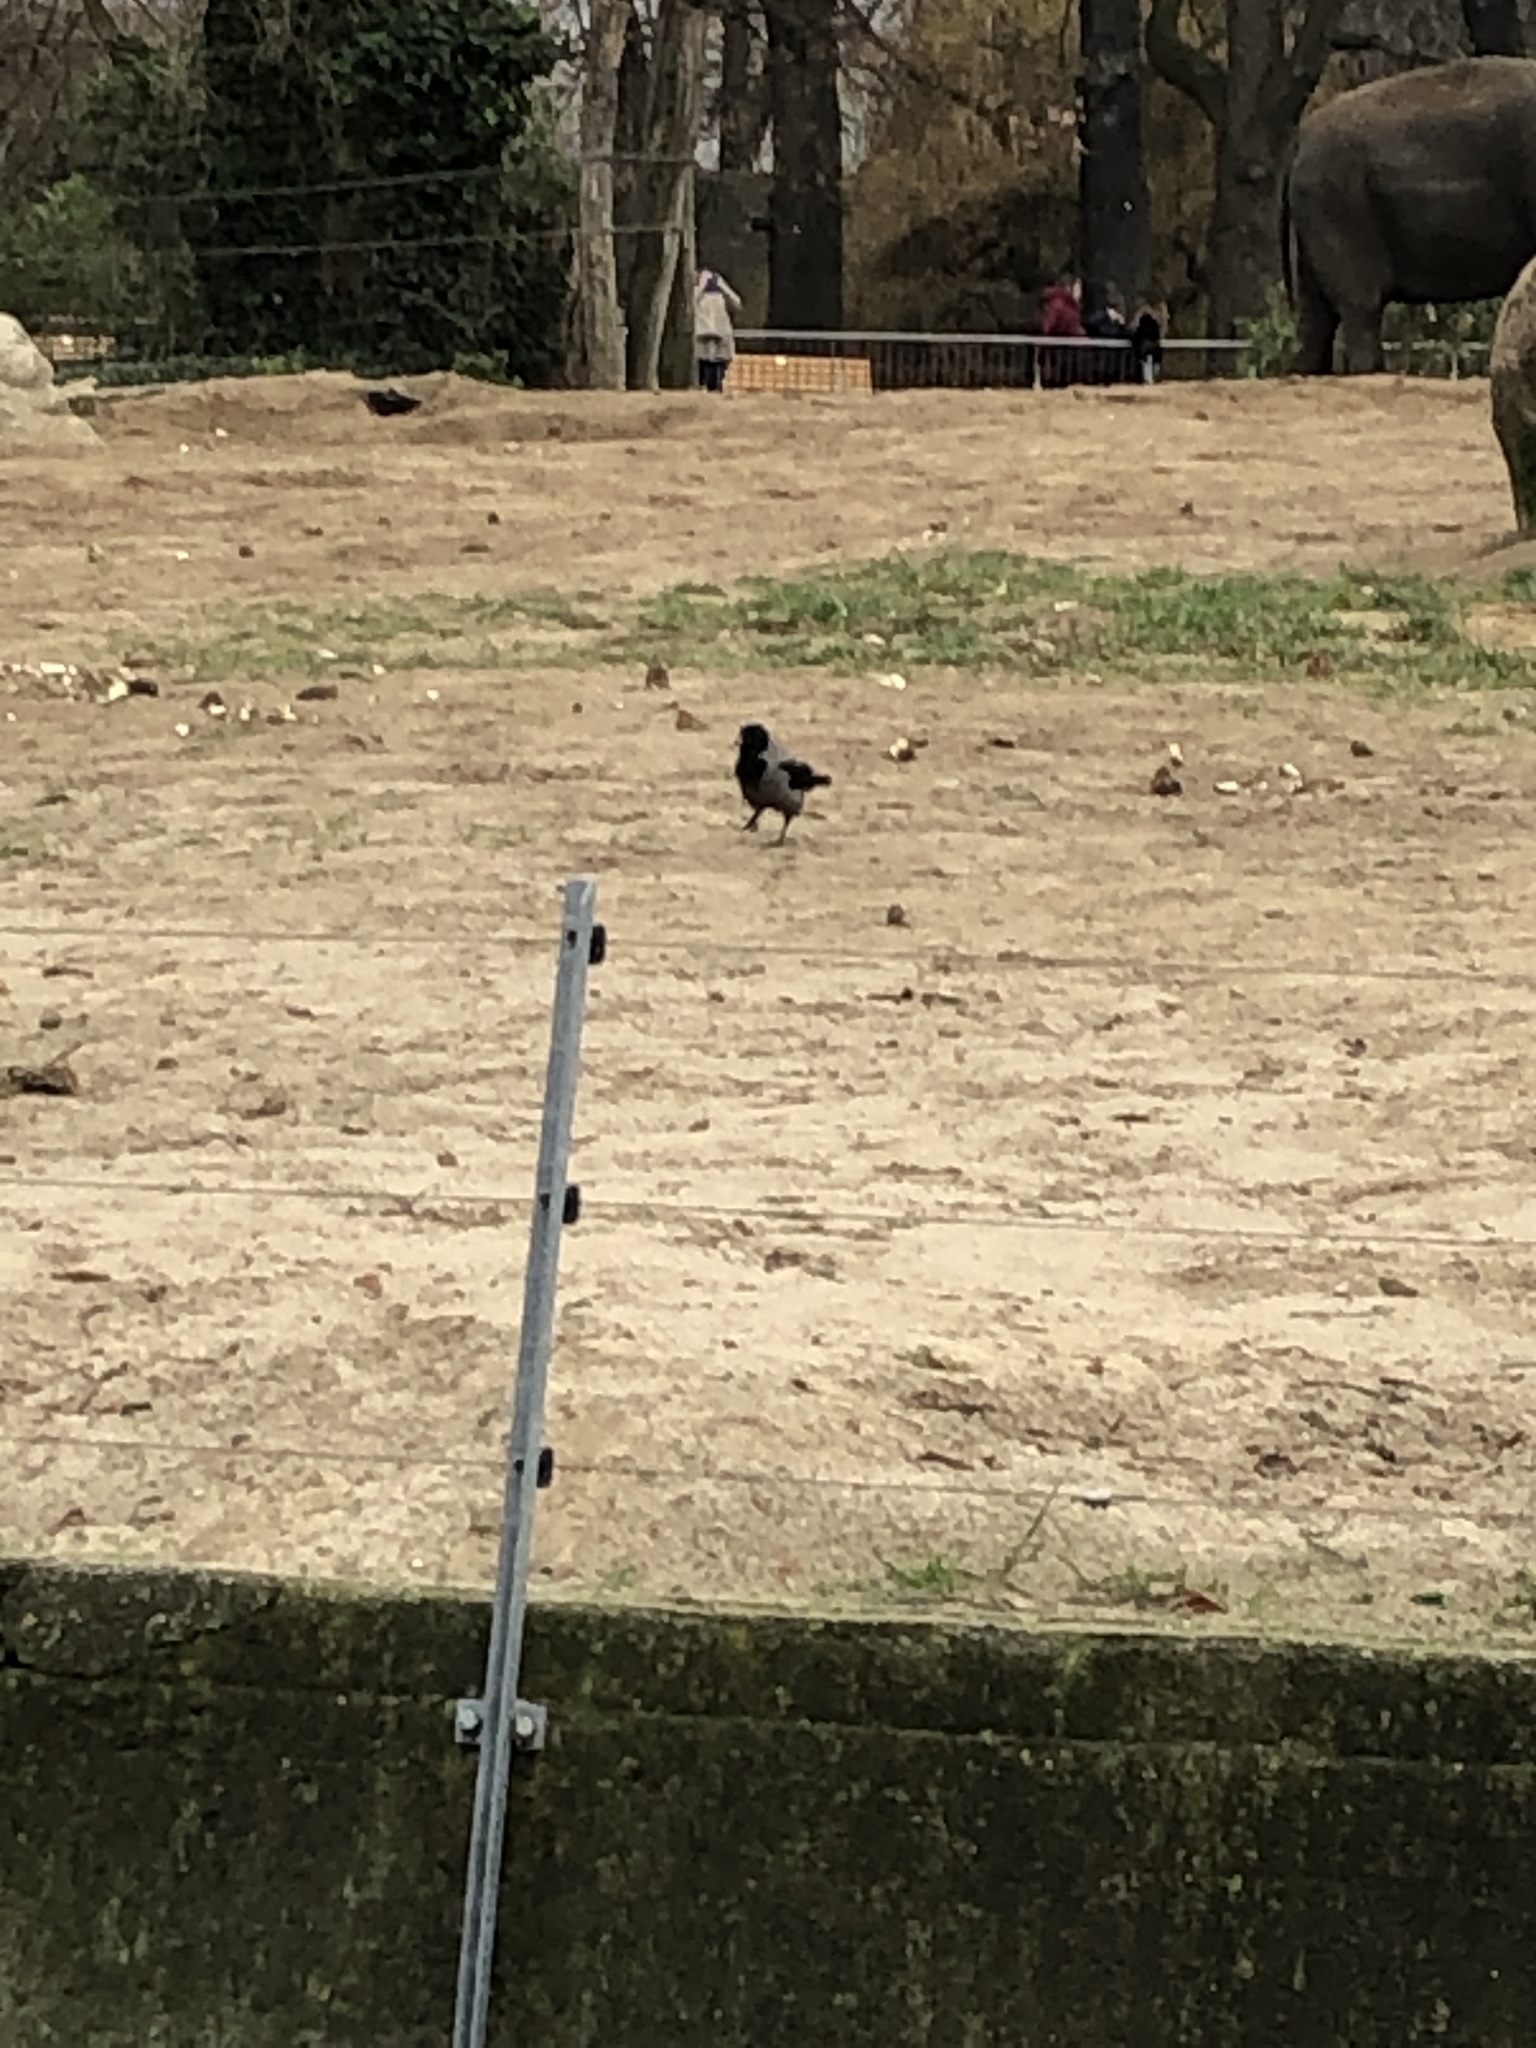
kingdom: Animalia
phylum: Chordata
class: Aves
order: Passeriformes
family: Corvidae
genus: Corvus
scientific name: Corvus cornix
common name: Hooded crow
